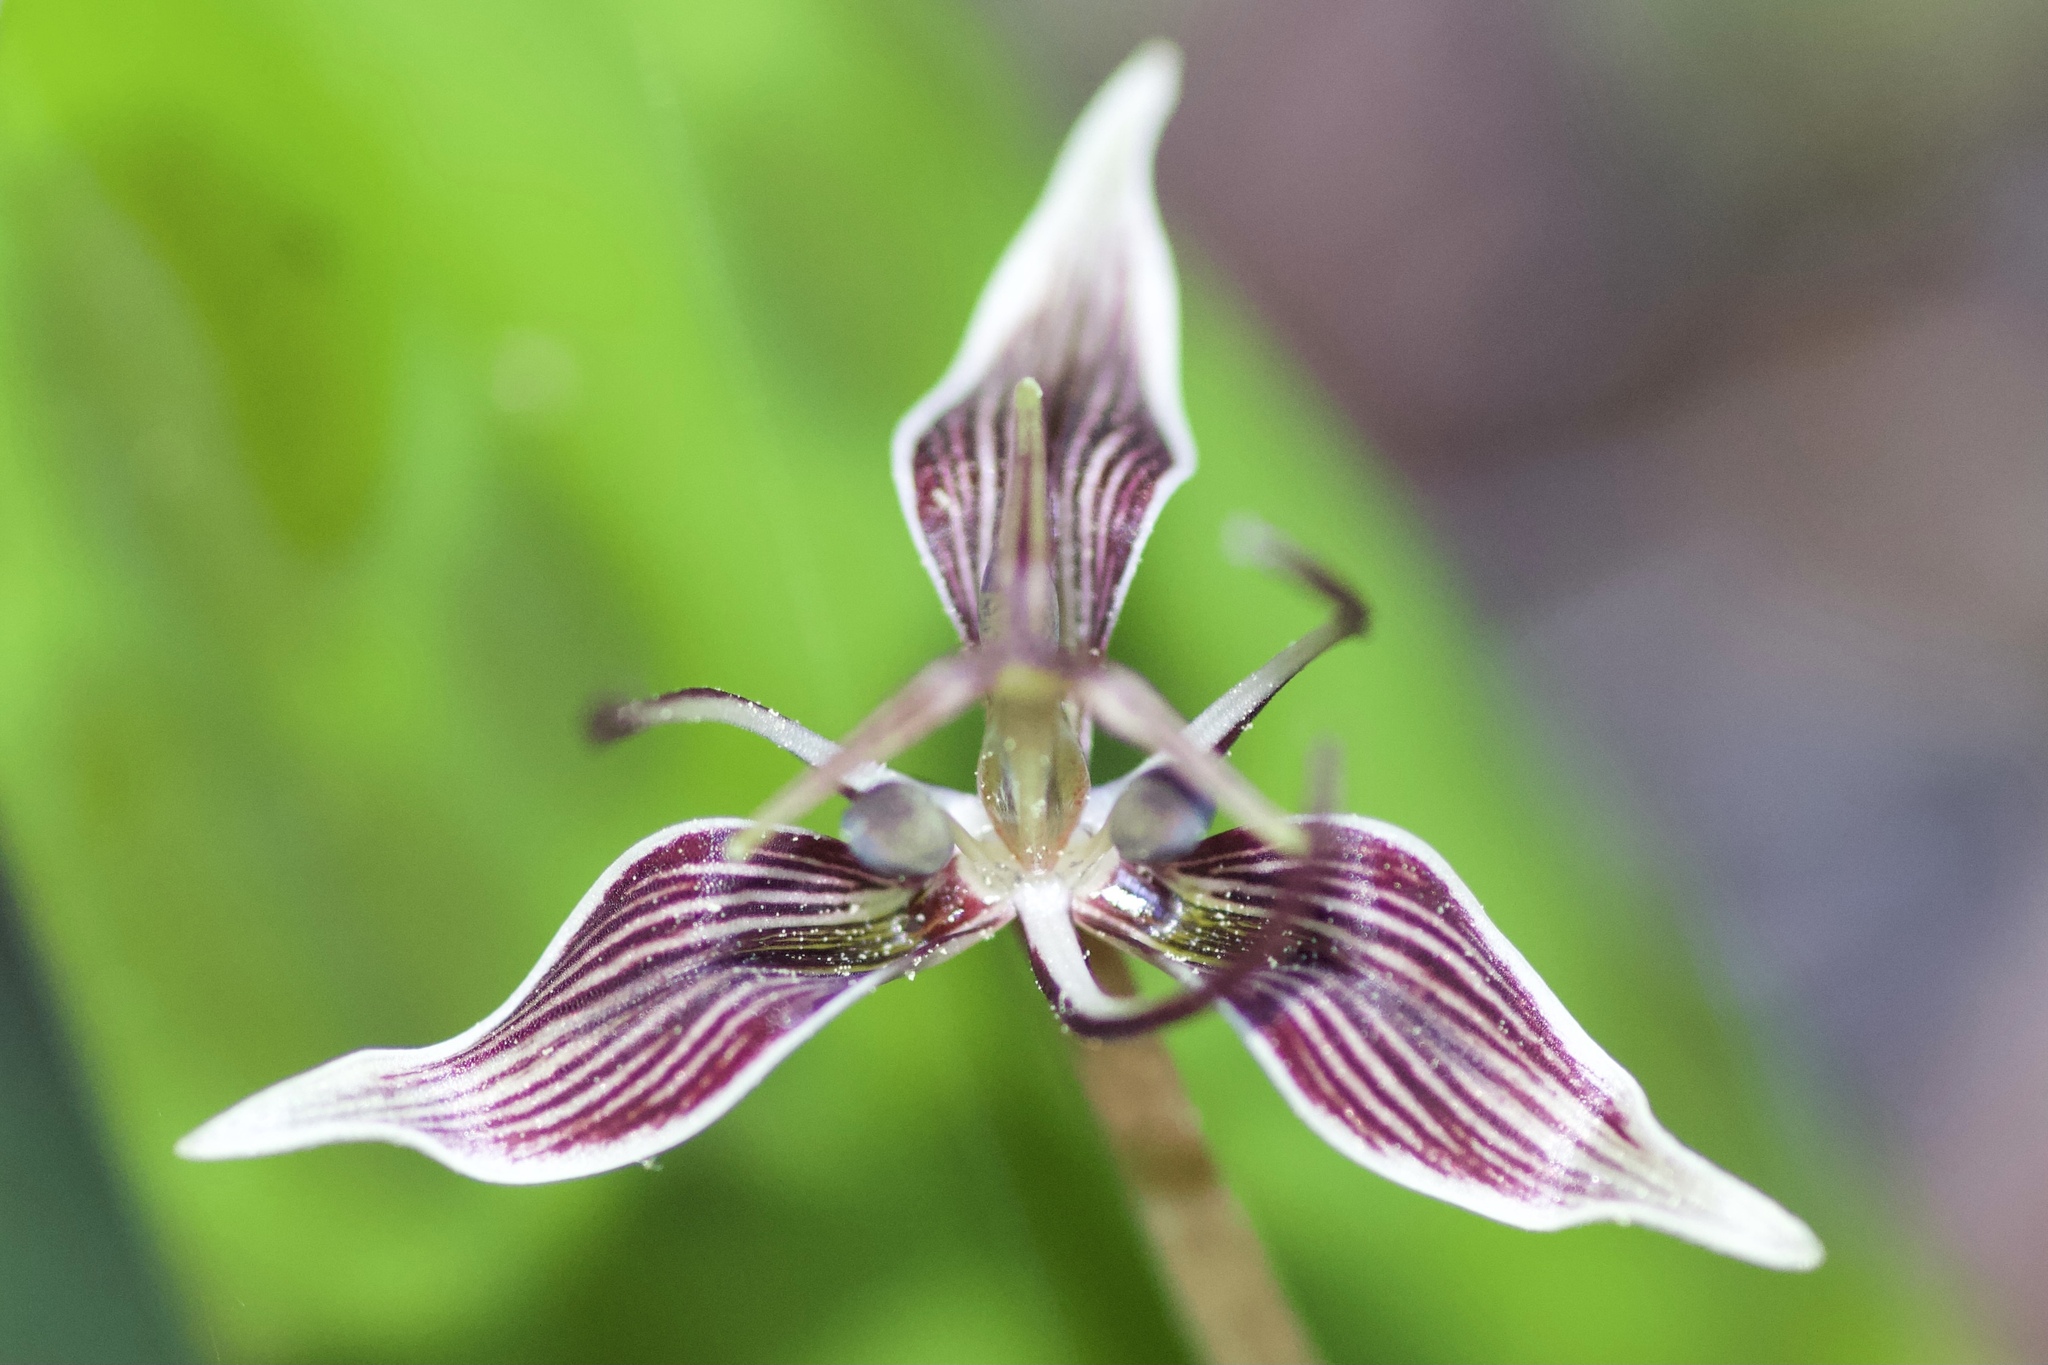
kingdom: Plantae
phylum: Tracheophyta
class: Liliopsida
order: Liliales
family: Liliaceae
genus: Scoliopus
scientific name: Scoliopus bigelovii
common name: Foetid adder's-tongue
